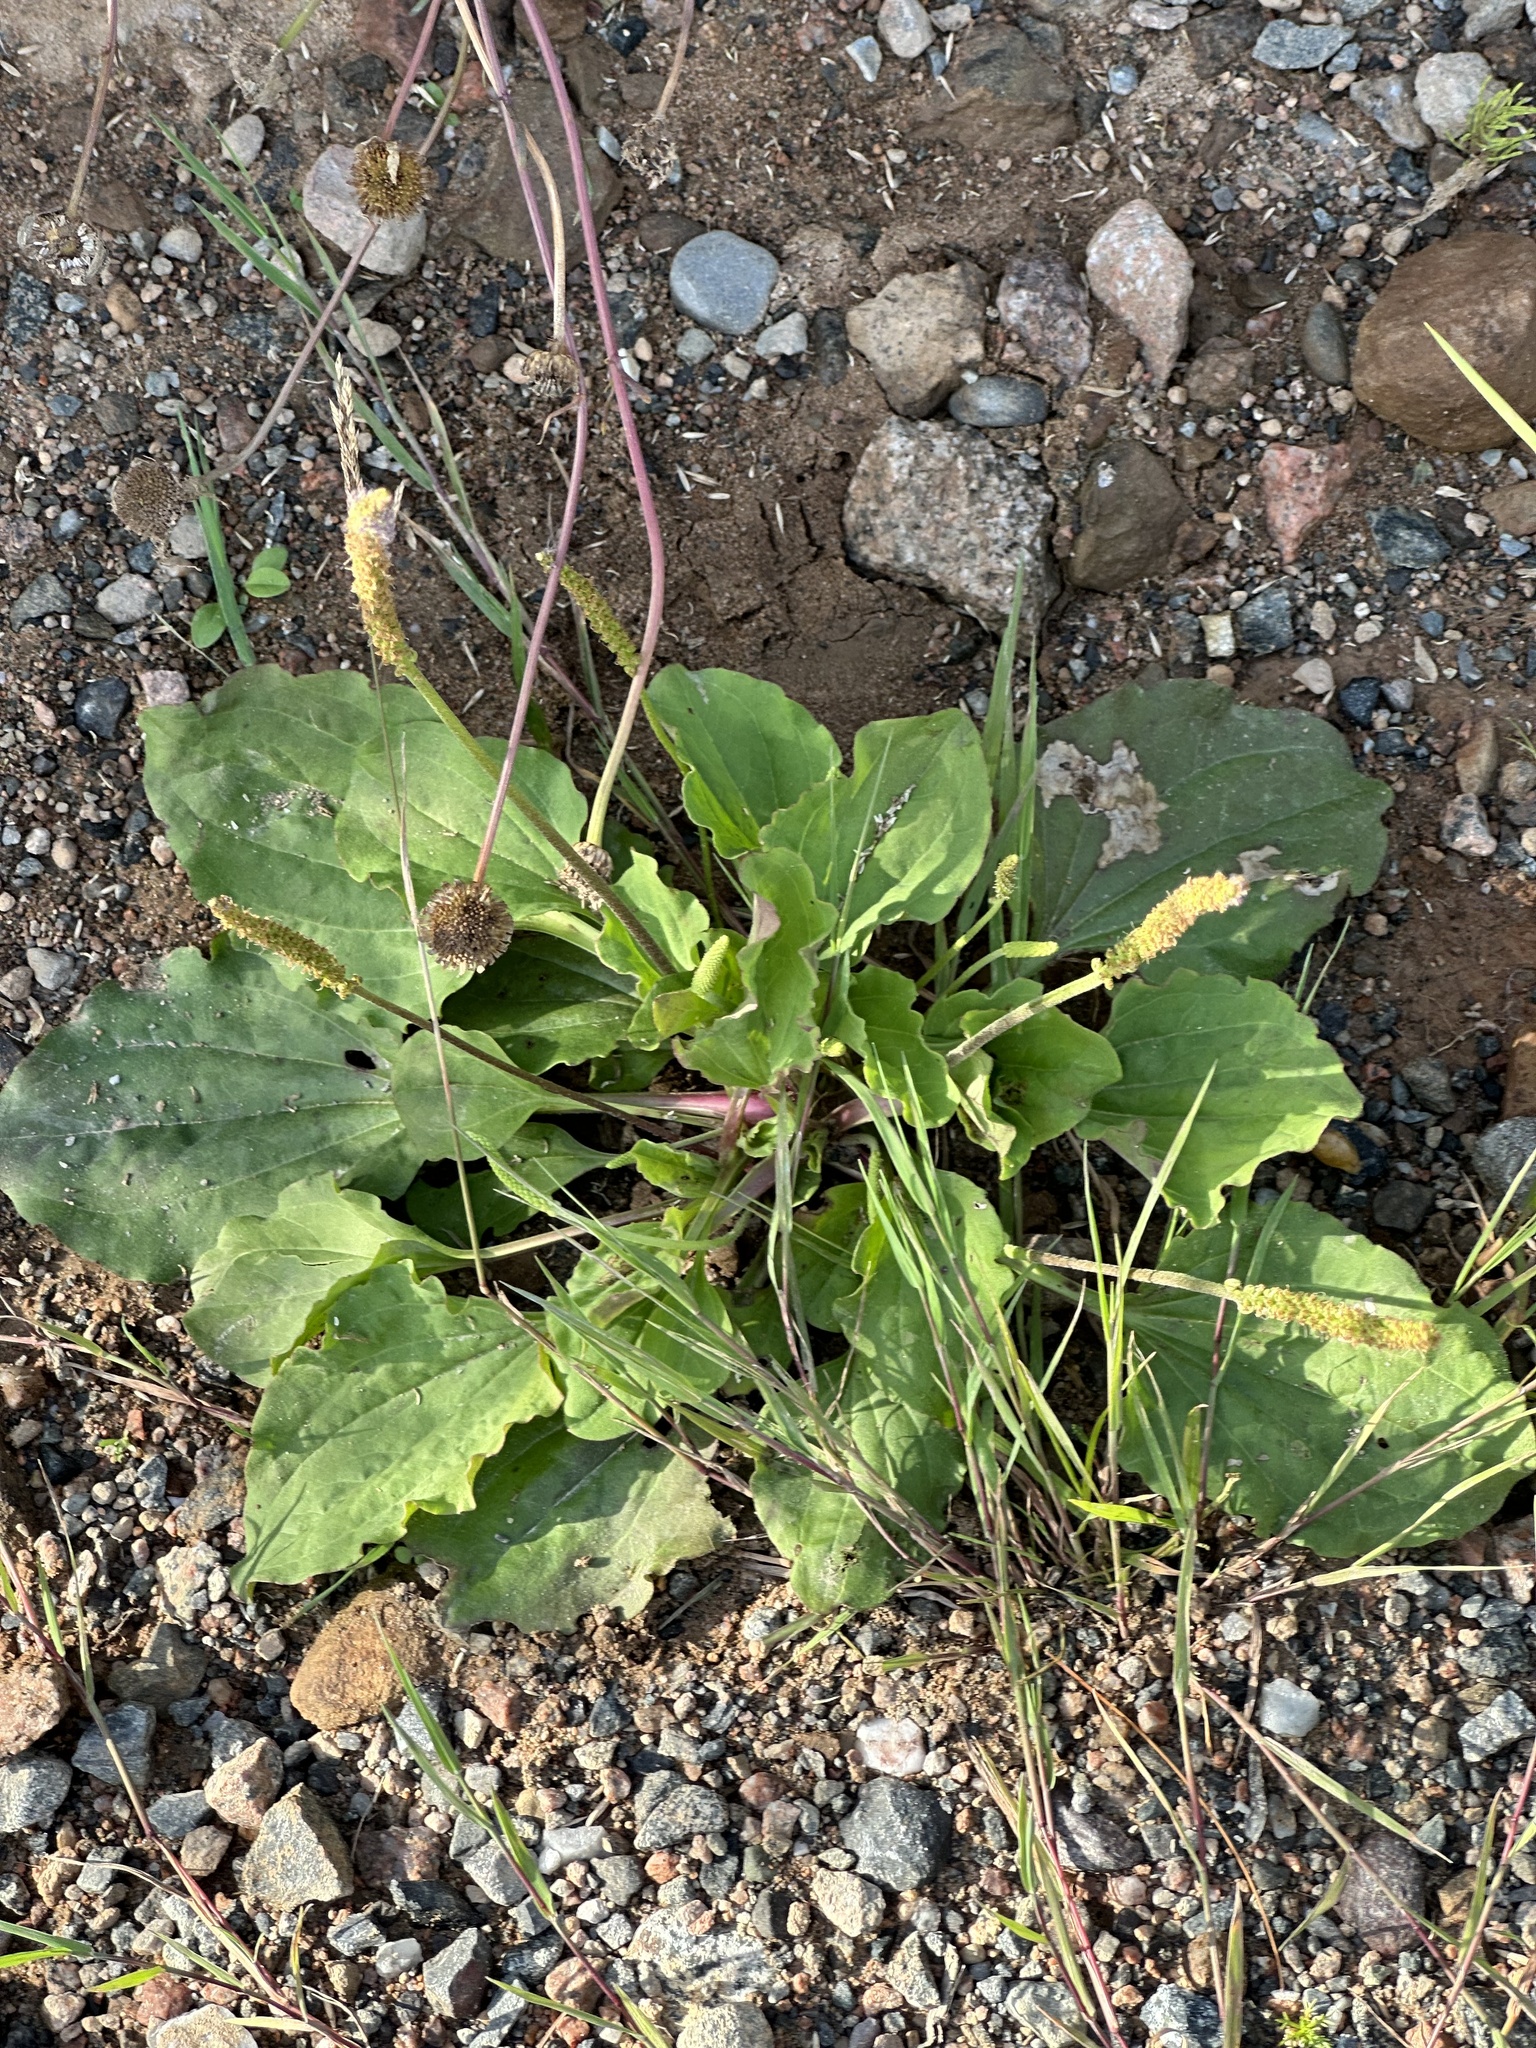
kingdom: Plantae
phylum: Tracheophyta
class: Magnoliopsida
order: Lamiales
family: Plantaginaceae
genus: Plantago
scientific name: Plantago major
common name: Common plantain
